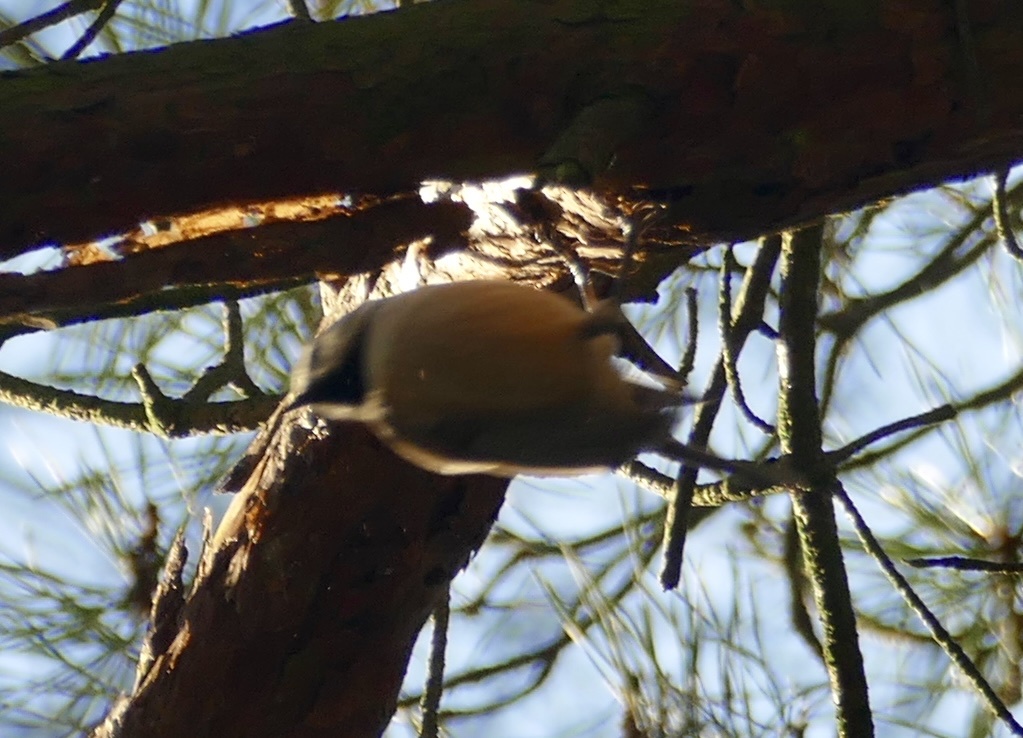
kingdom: Animalia
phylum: Chordata
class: Aves
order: Passeriformes
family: Paridae
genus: Lophophanes
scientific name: Lophophanes cristatus
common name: European crested tit
